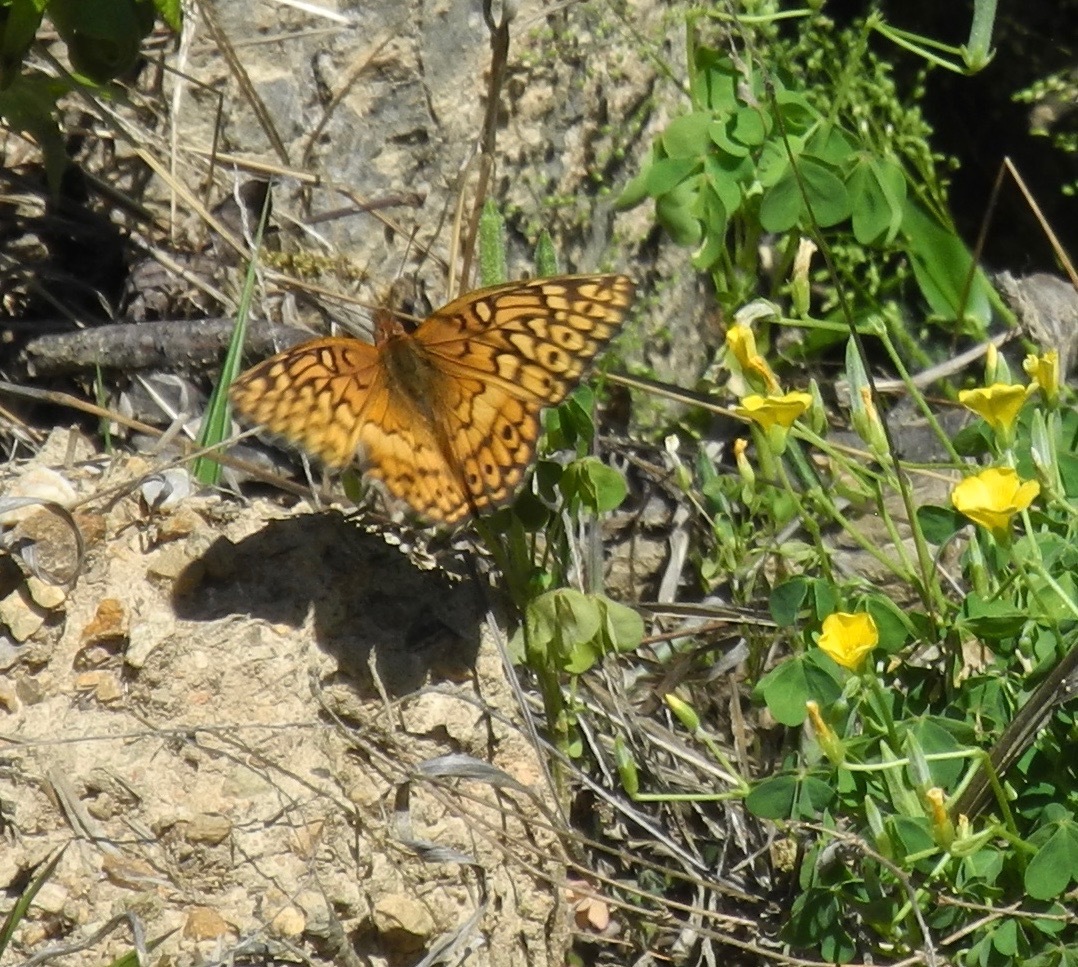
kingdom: Animalia
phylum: Arthropoda
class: Insecta
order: Lepidoptera
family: Nymphalidae
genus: Euptoieta
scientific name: Euptoieta claudia
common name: Variegated fritillary
